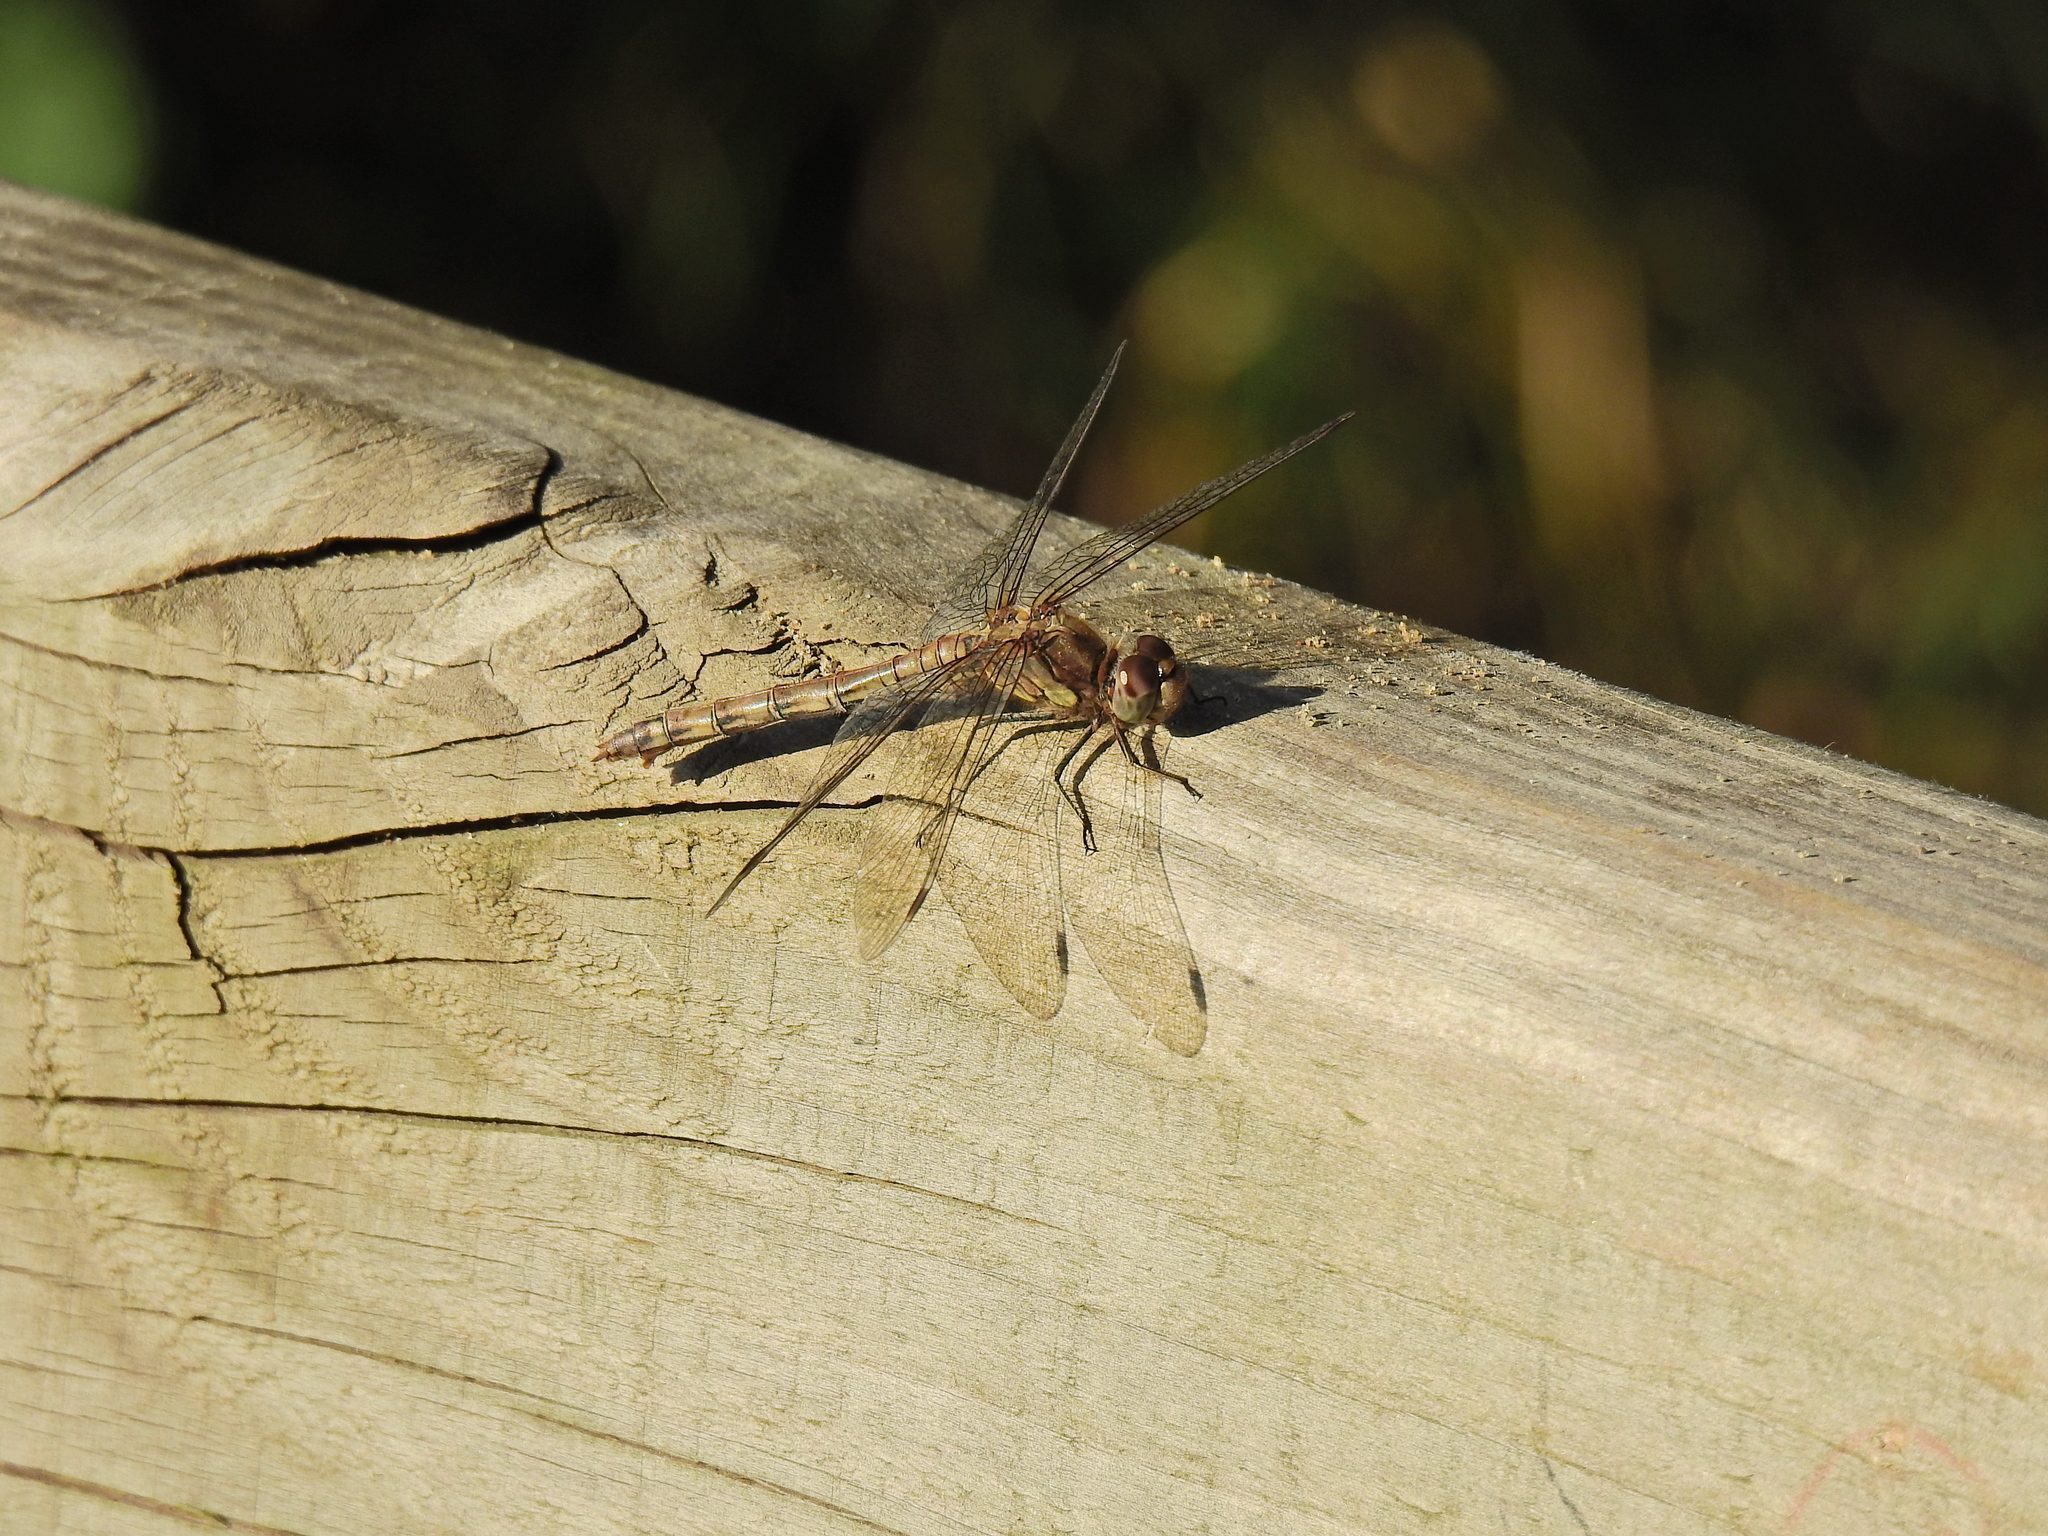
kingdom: Animalia
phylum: Arthropoda
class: Insecta
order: Odonata
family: Libellulidae
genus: Sympetrum
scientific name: Sympetrum striolatum
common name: Common darter
